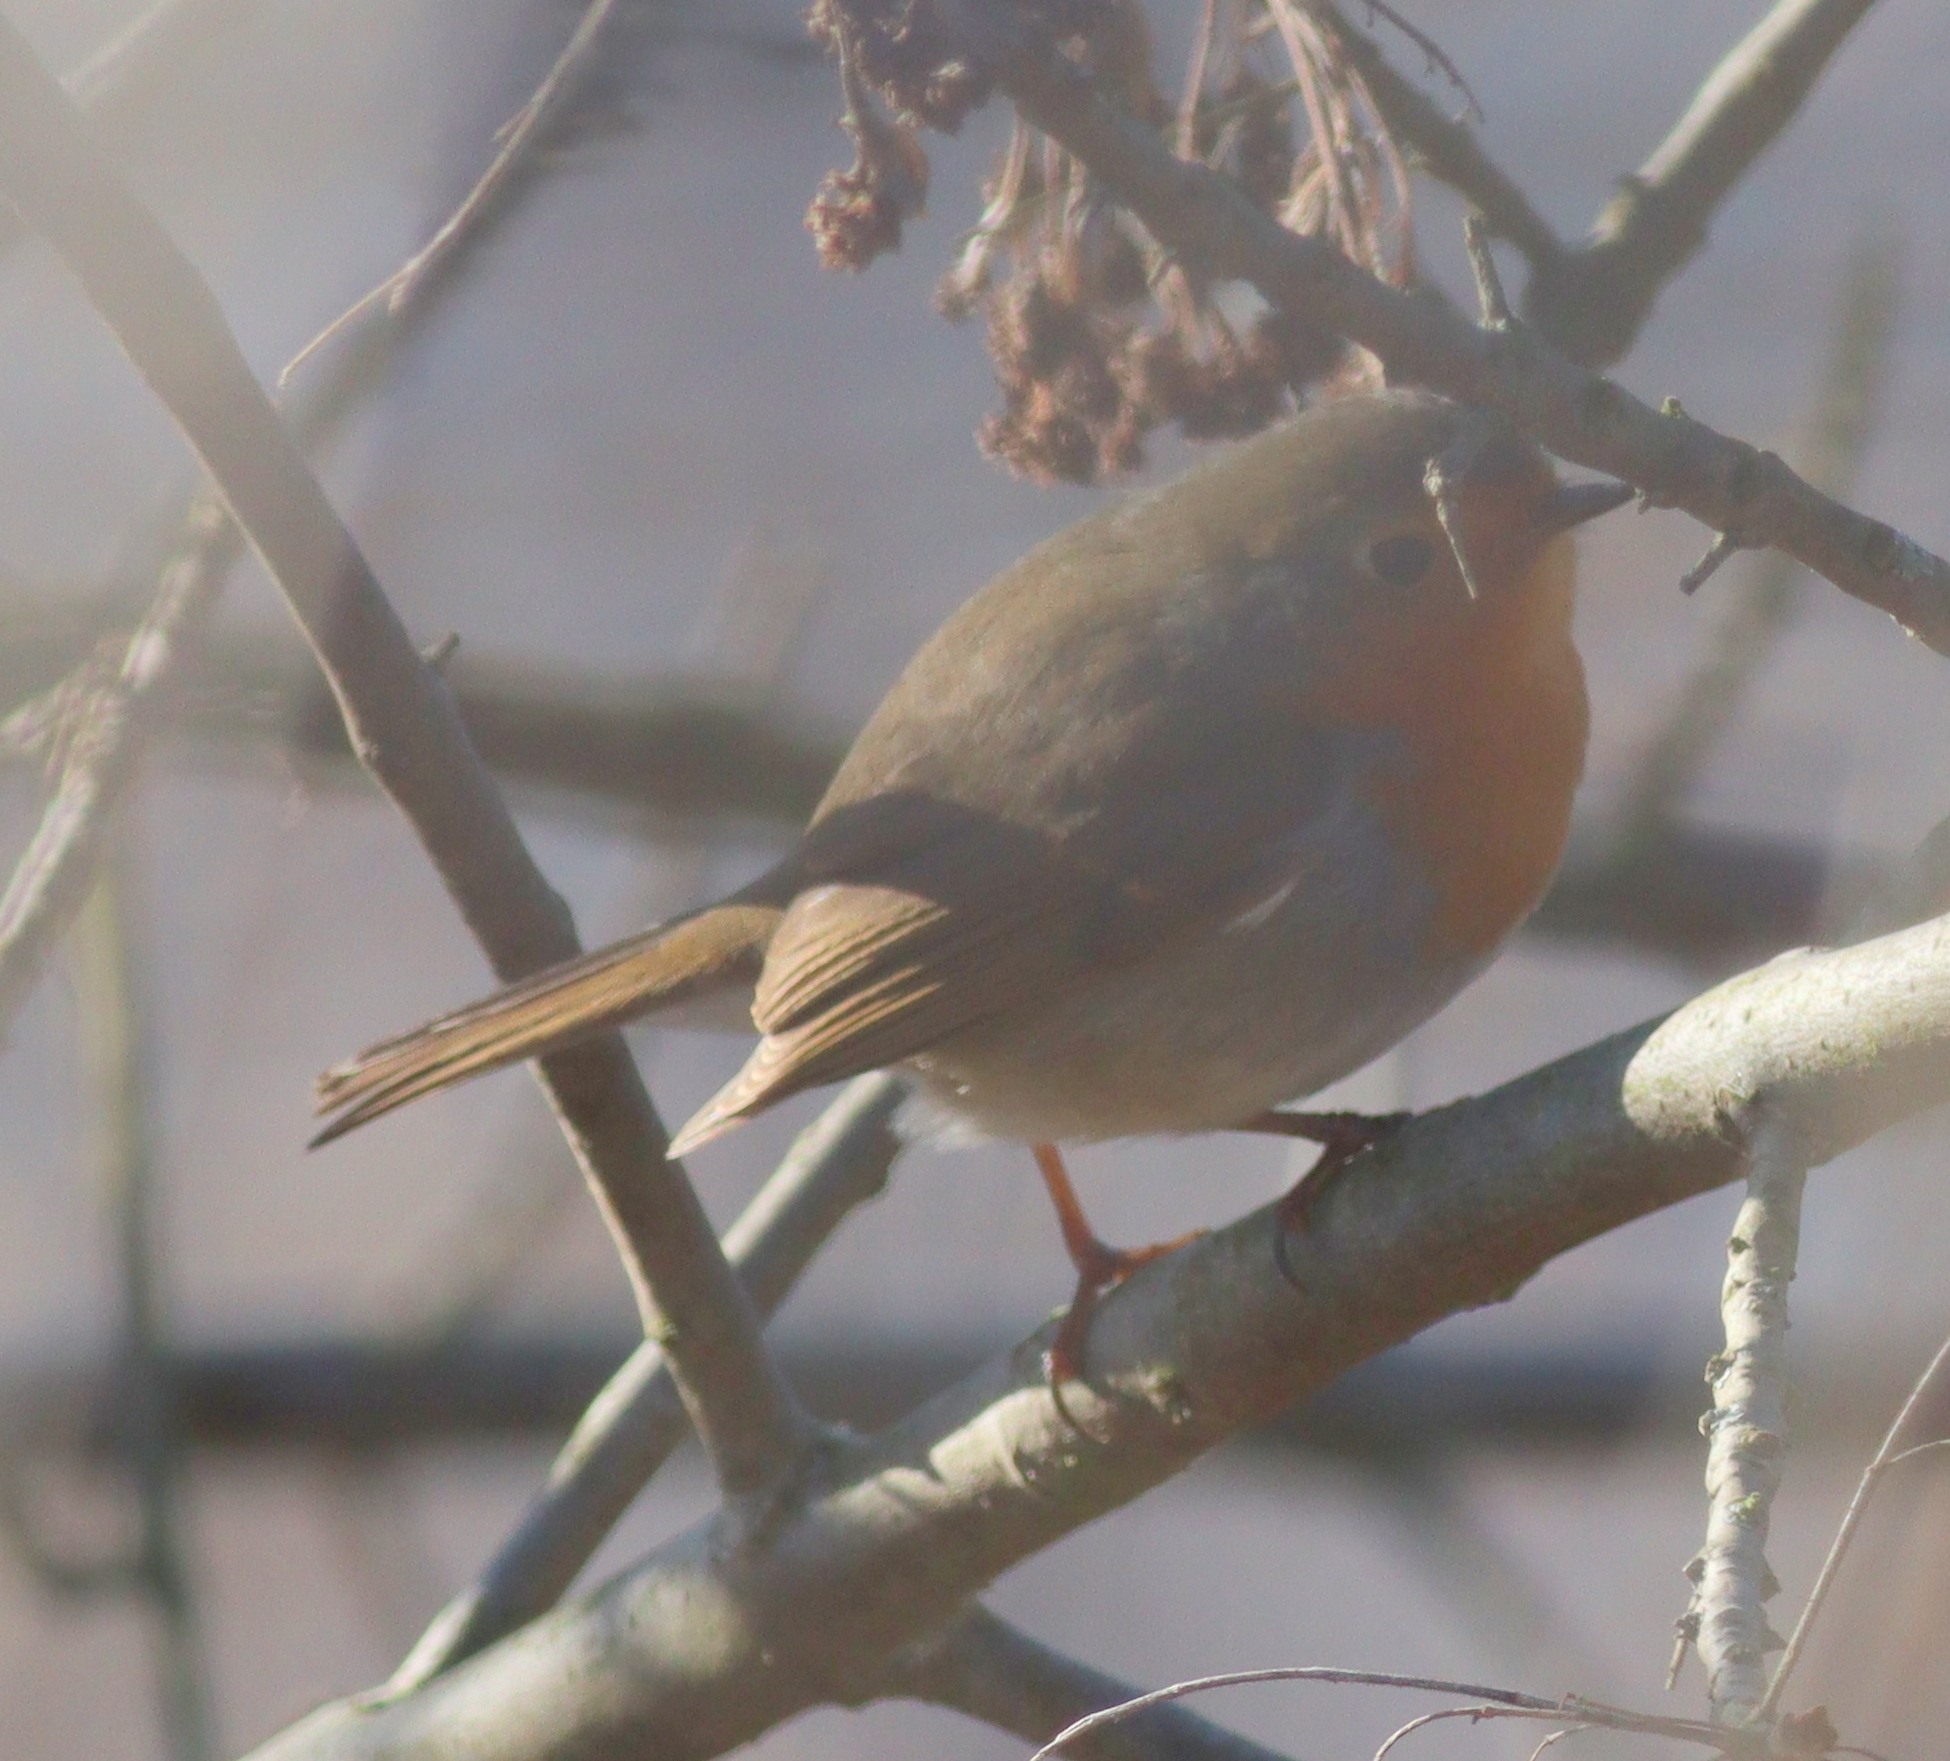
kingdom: Animalia
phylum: Chordata
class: Aves
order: Passeriformes
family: Muscicapidae
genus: Erithacus
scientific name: Erithacus rubecula
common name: European robin
